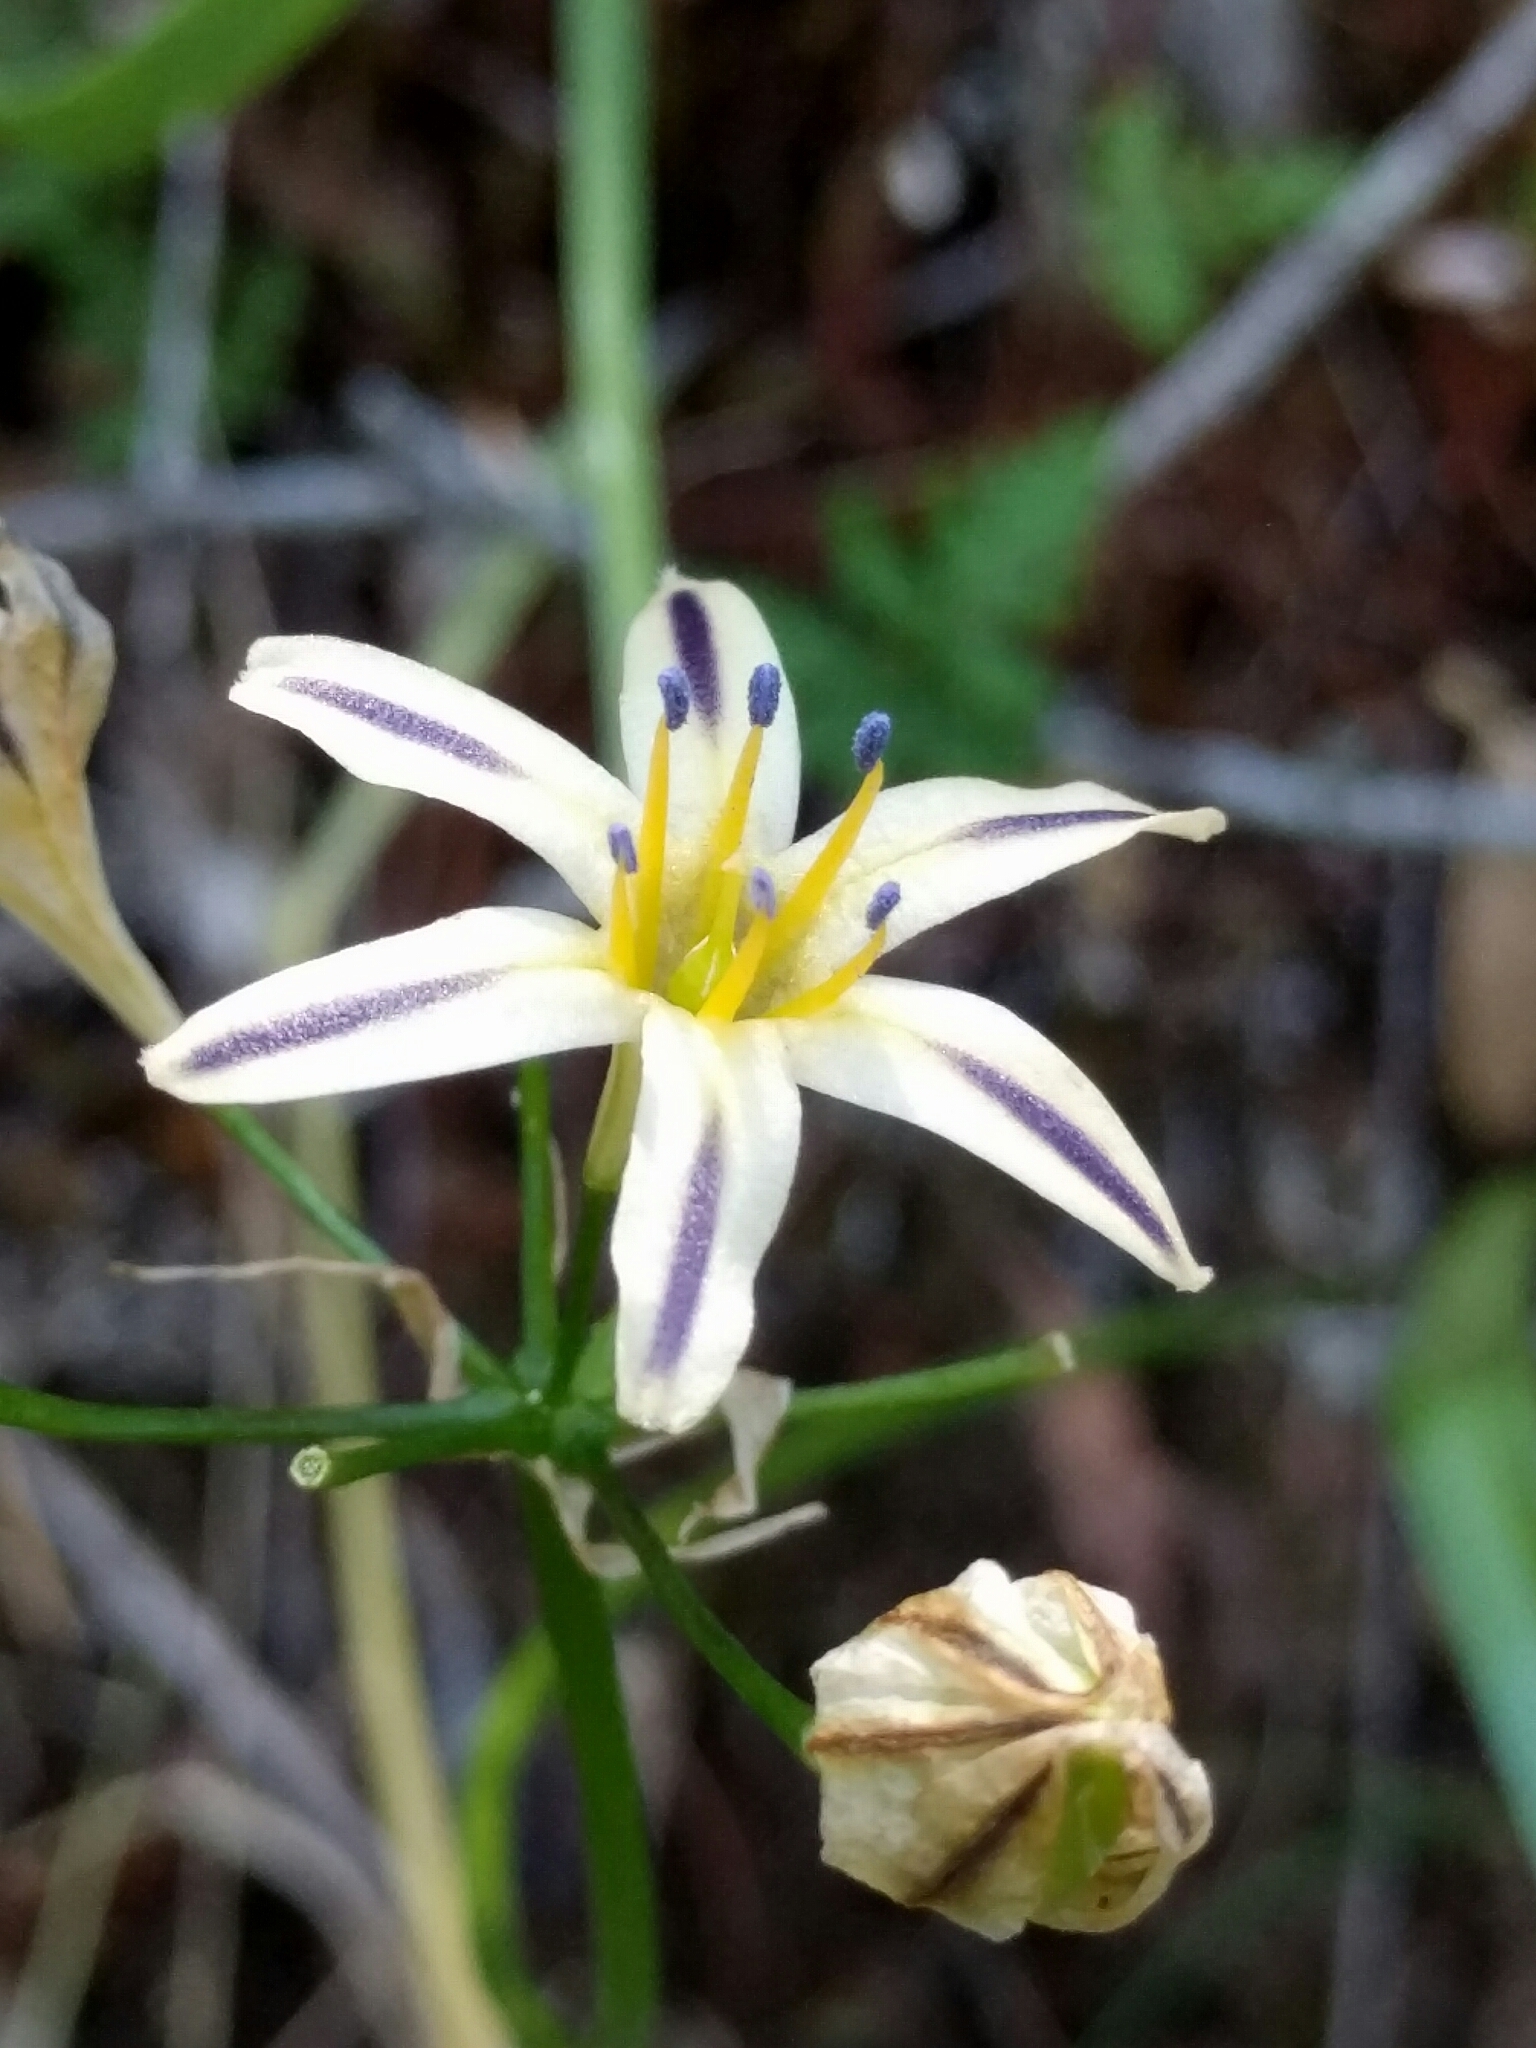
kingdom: Plantae
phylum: Tracheophyta
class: Liliopsida
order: Asparagales
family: Asparagaceae
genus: Triteleia
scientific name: Triteleia hendersonii
